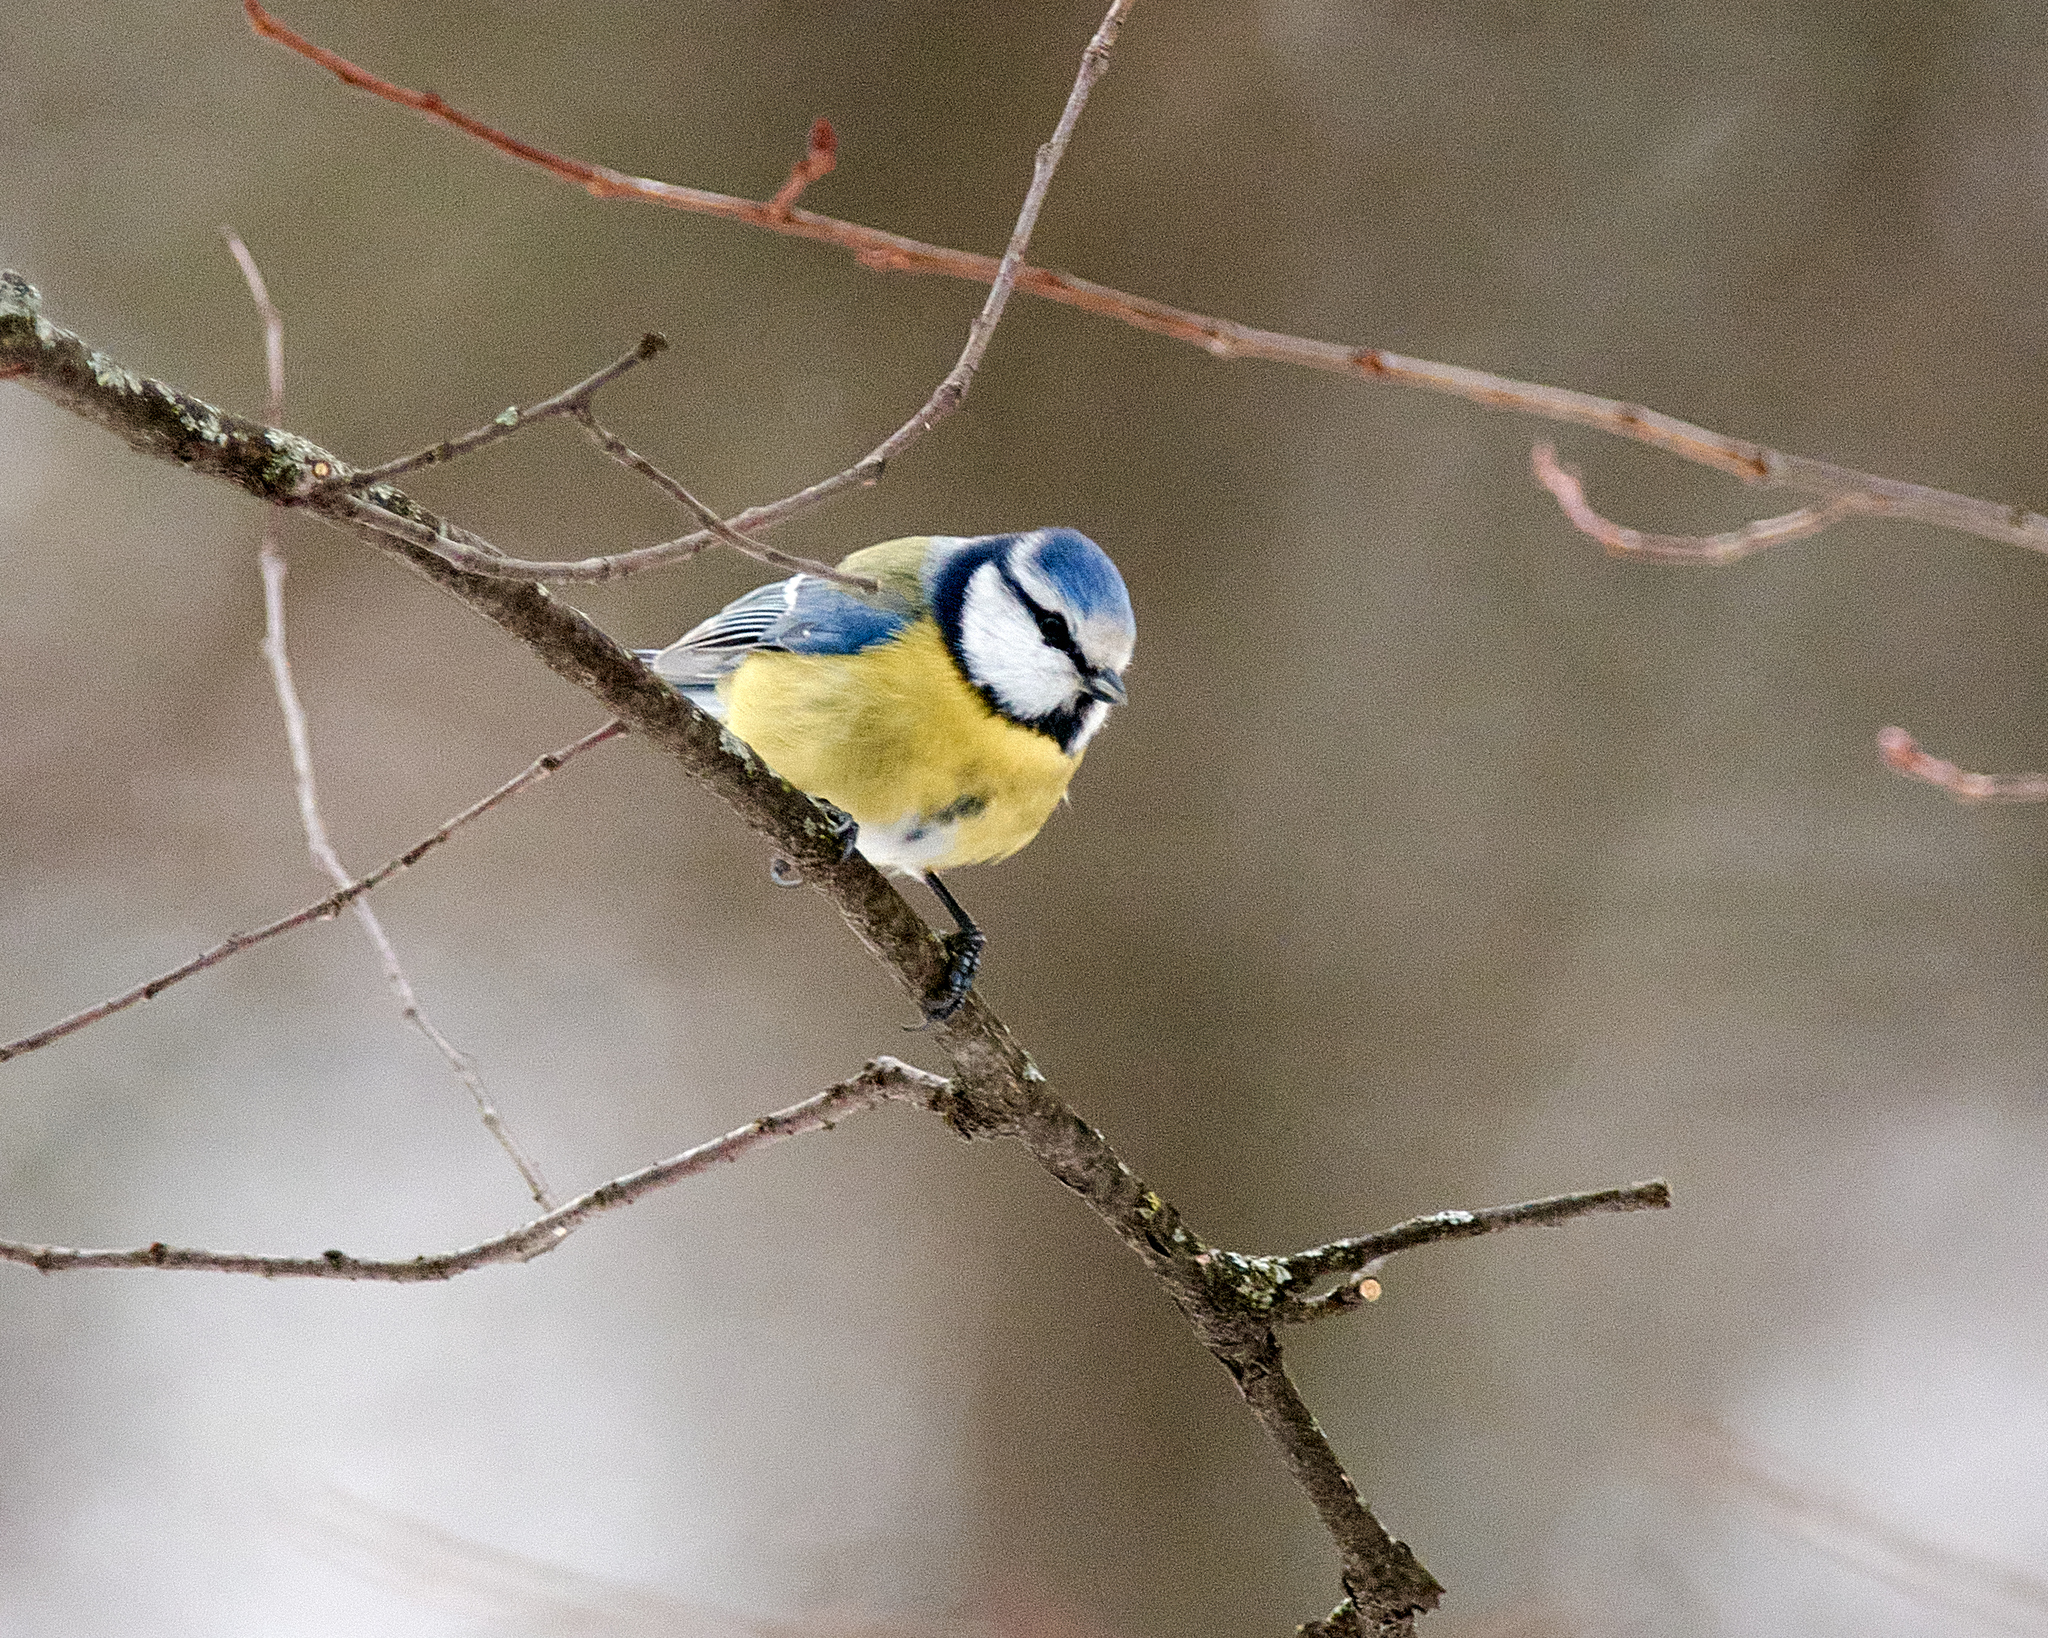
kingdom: Animalia
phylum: Chordata
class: Aves
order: Passeriformes
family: Paridae
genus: Cyanistes
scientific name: Cyanistes caeruleus
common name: Eurasian blue tit
